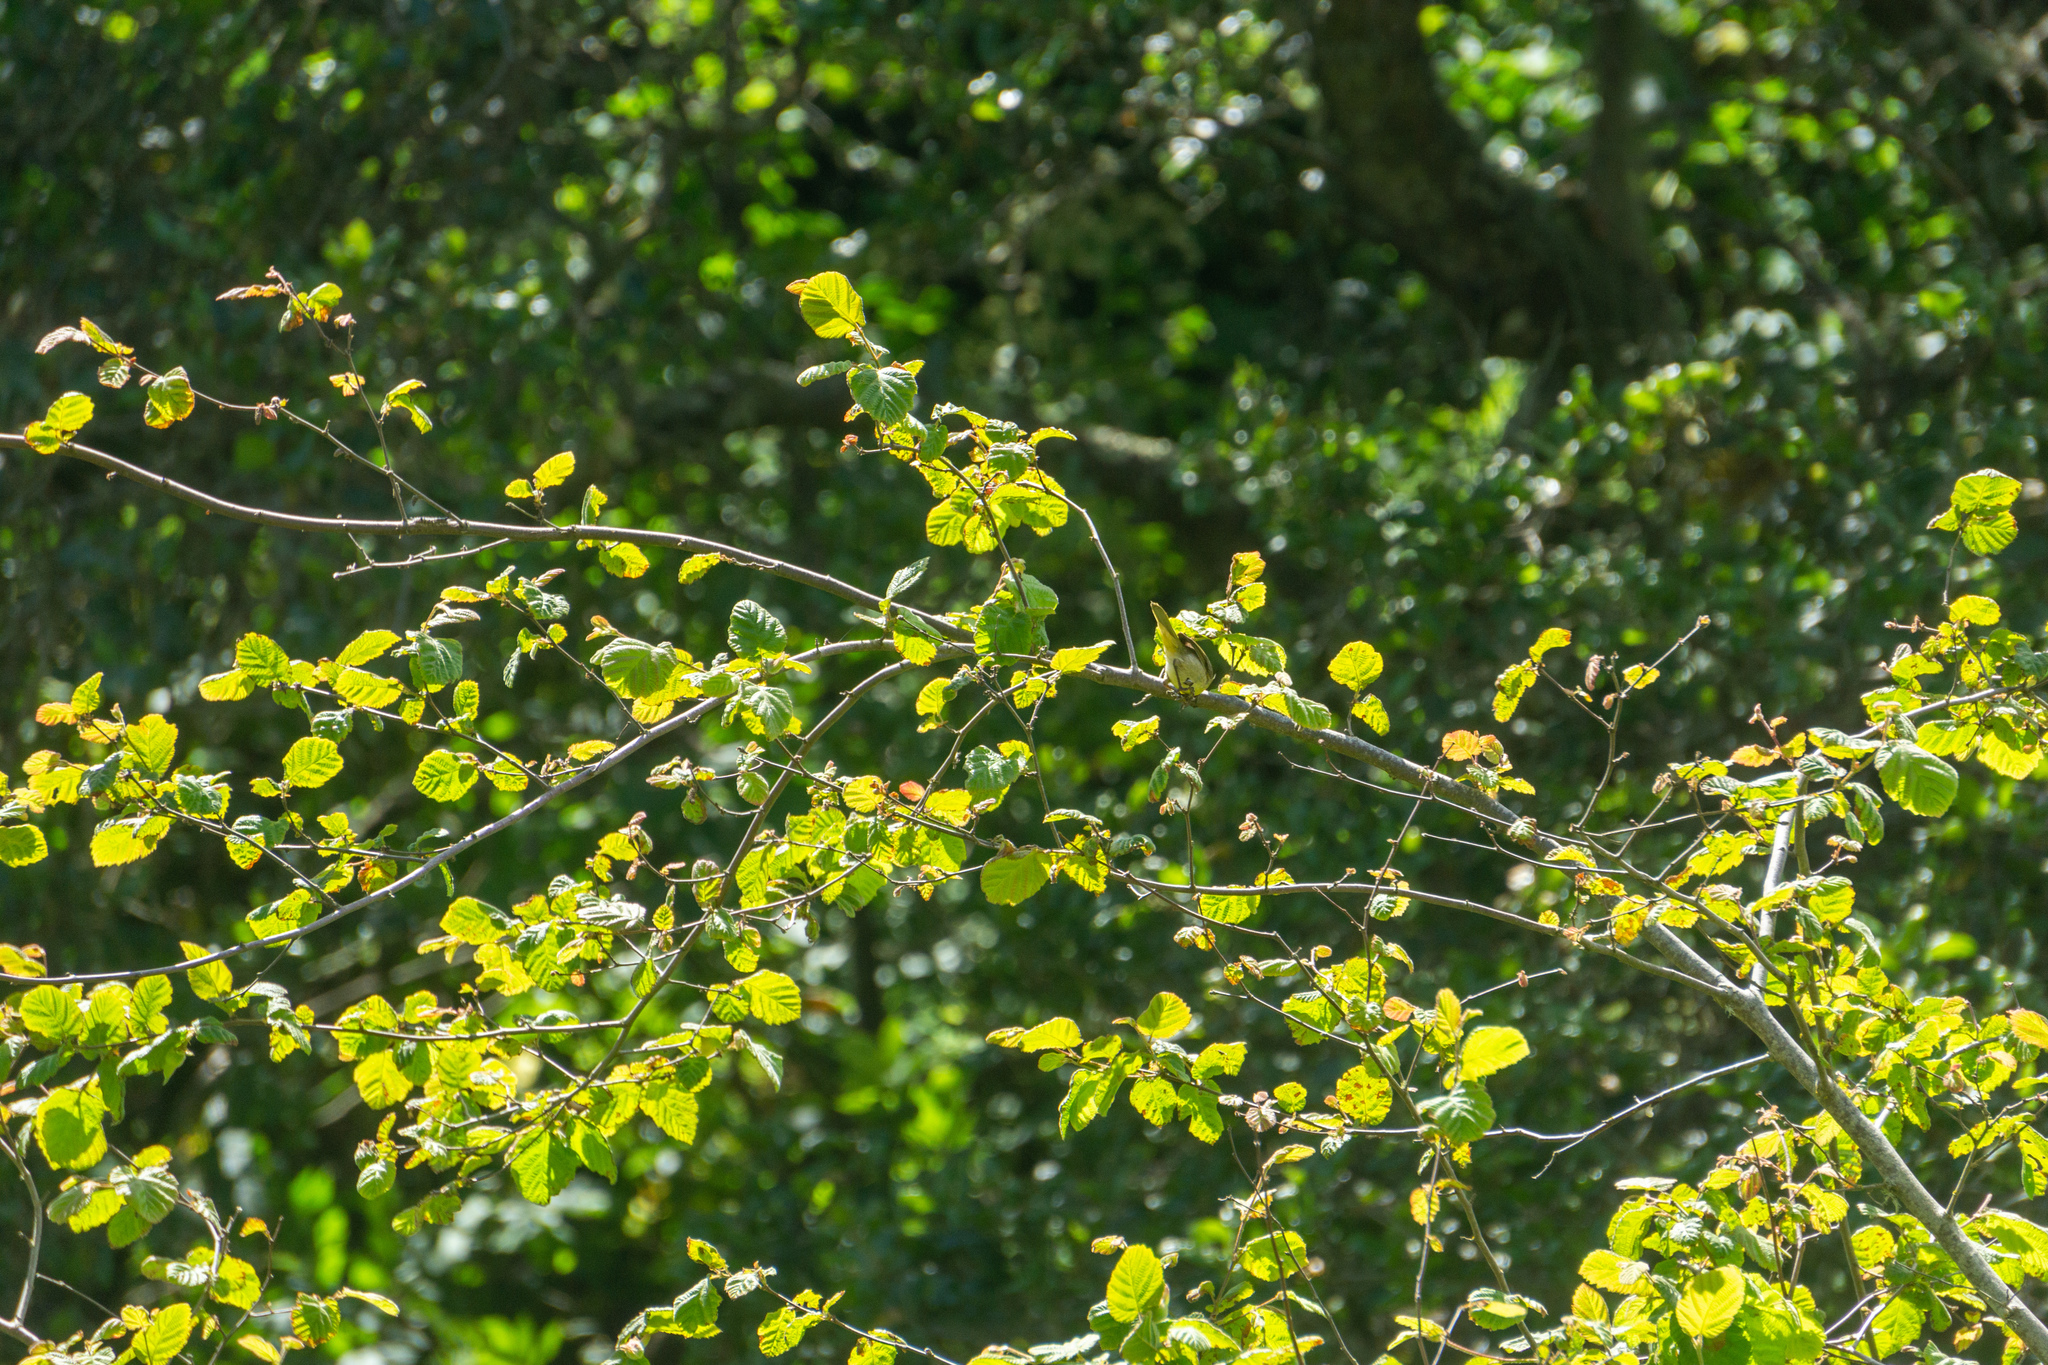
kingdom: Animalia
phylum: Chordata
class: Aves
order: Passeriformes
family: Parulidae
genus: Geothlypis
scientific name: Geothlypis trichas
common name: Common yellowthroat
